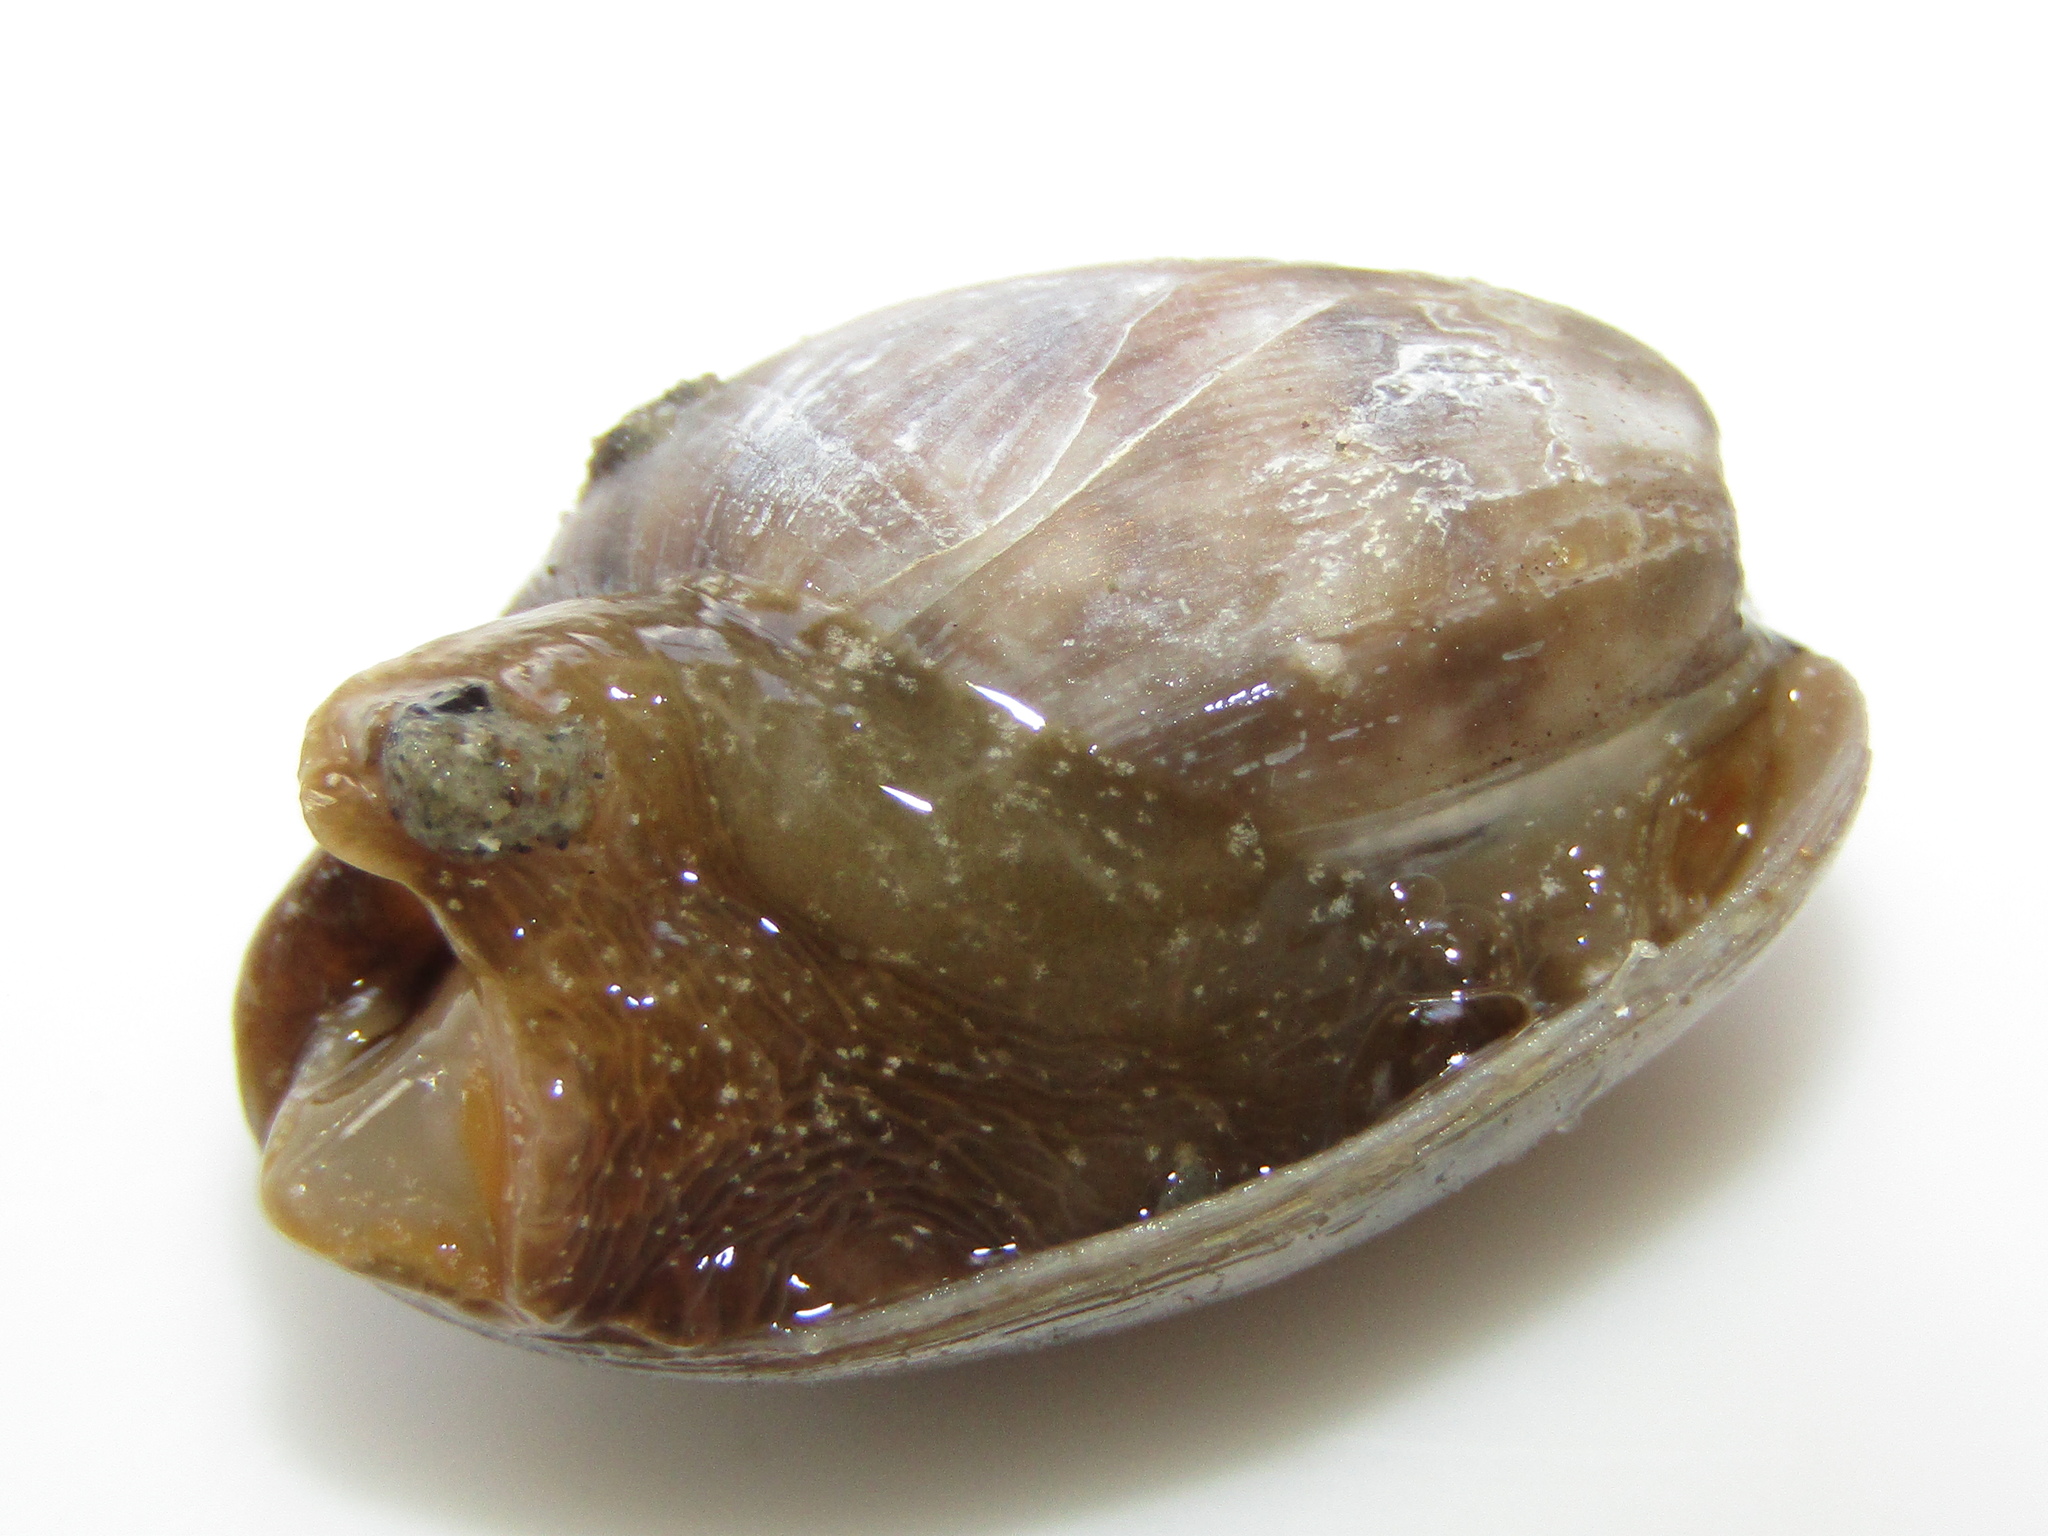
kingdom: Animalia
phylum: Mollusca
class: Gastropoda
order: Cephalaspidea
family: Bullidae
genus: Bulla
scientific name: Bulla quoyii
